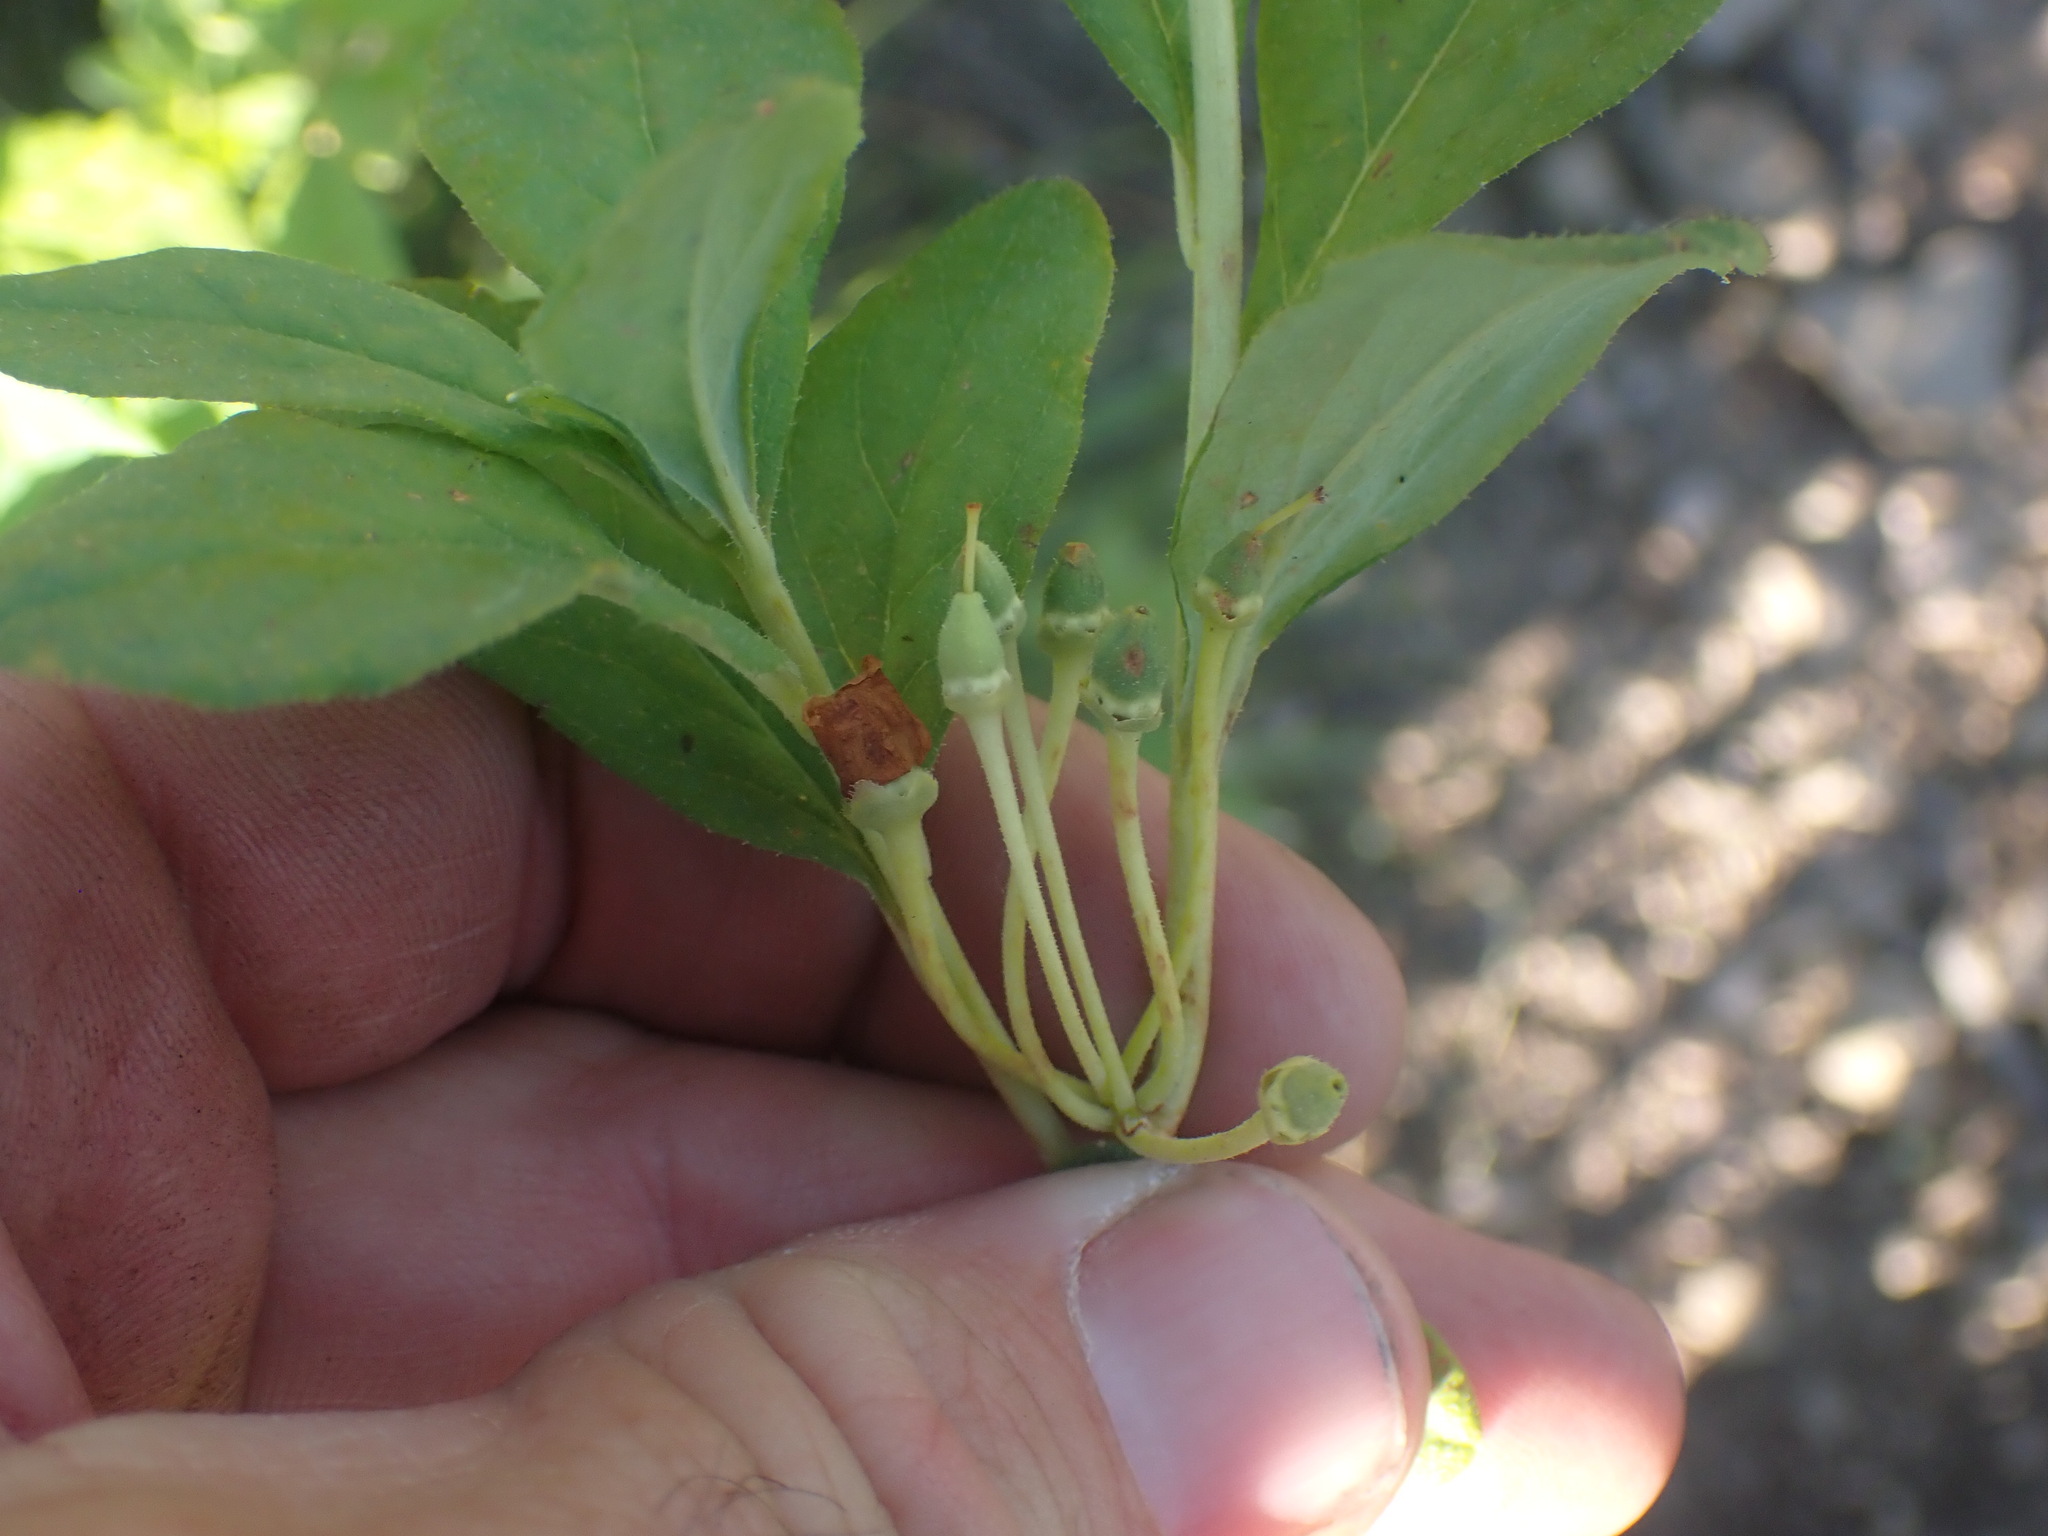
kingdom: Plantae
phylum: Tracheophyta
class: Magnoliopsida
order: Ericales
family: Ericaceae
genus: Rhododendron
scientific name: Rhododendron menziesii
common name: Pacific menziesia
